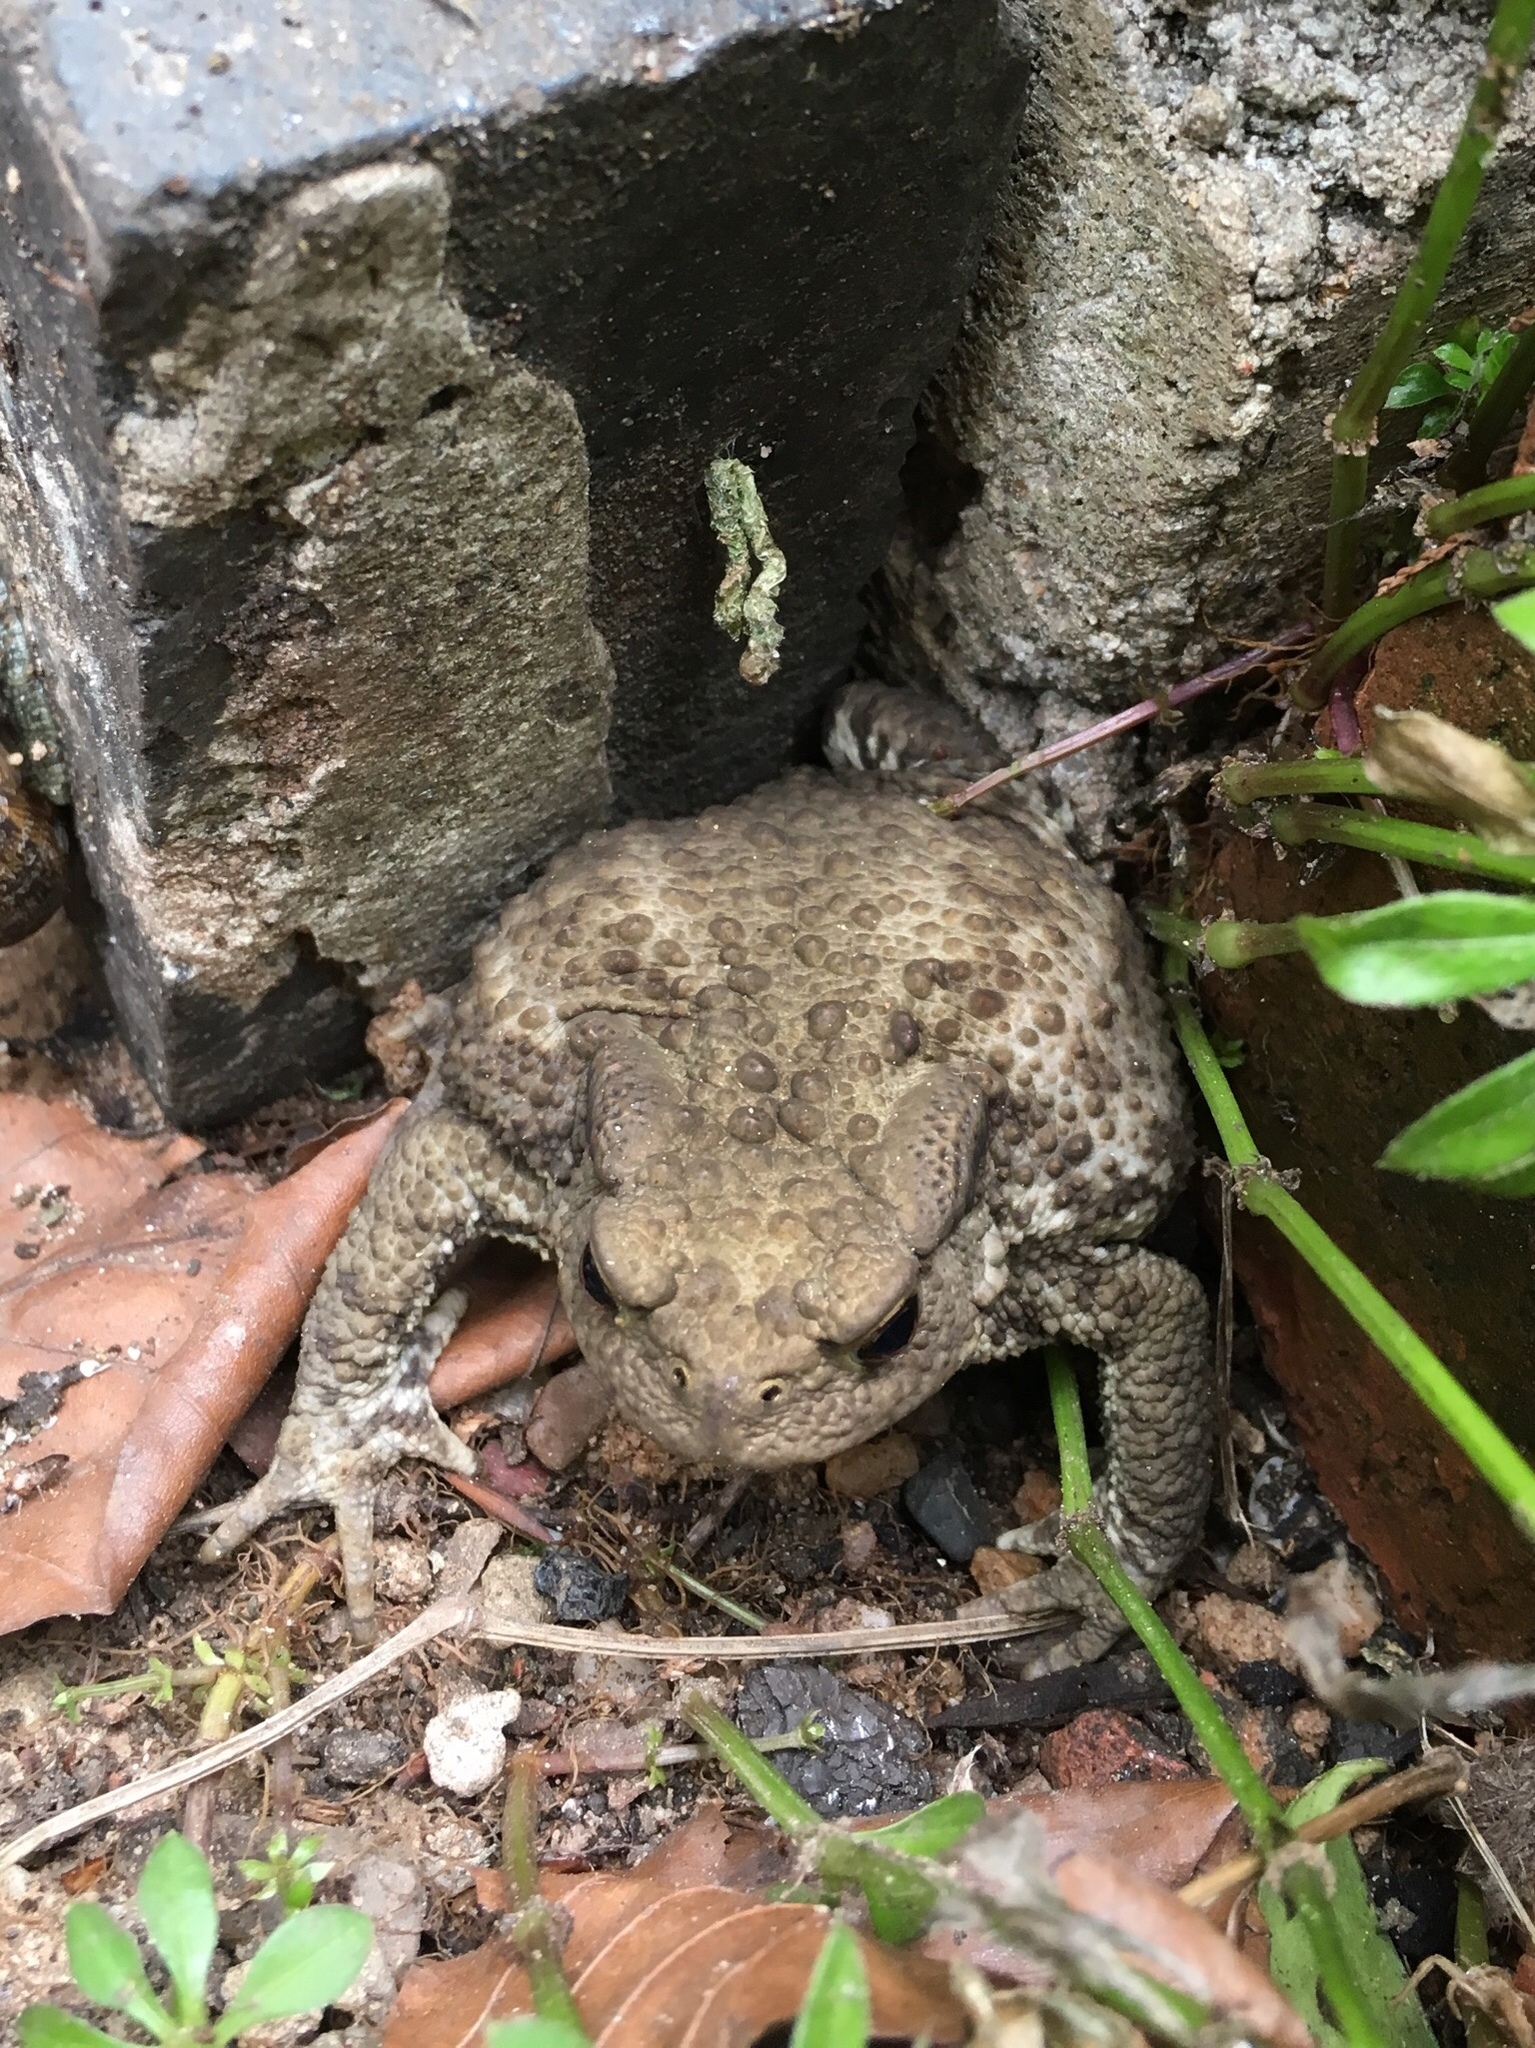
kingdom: Animalia
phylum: Chordata
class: Amphibia
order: Anura
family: Bufonidae
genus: Bufo
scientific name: Bufo bufo
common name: Common toad
